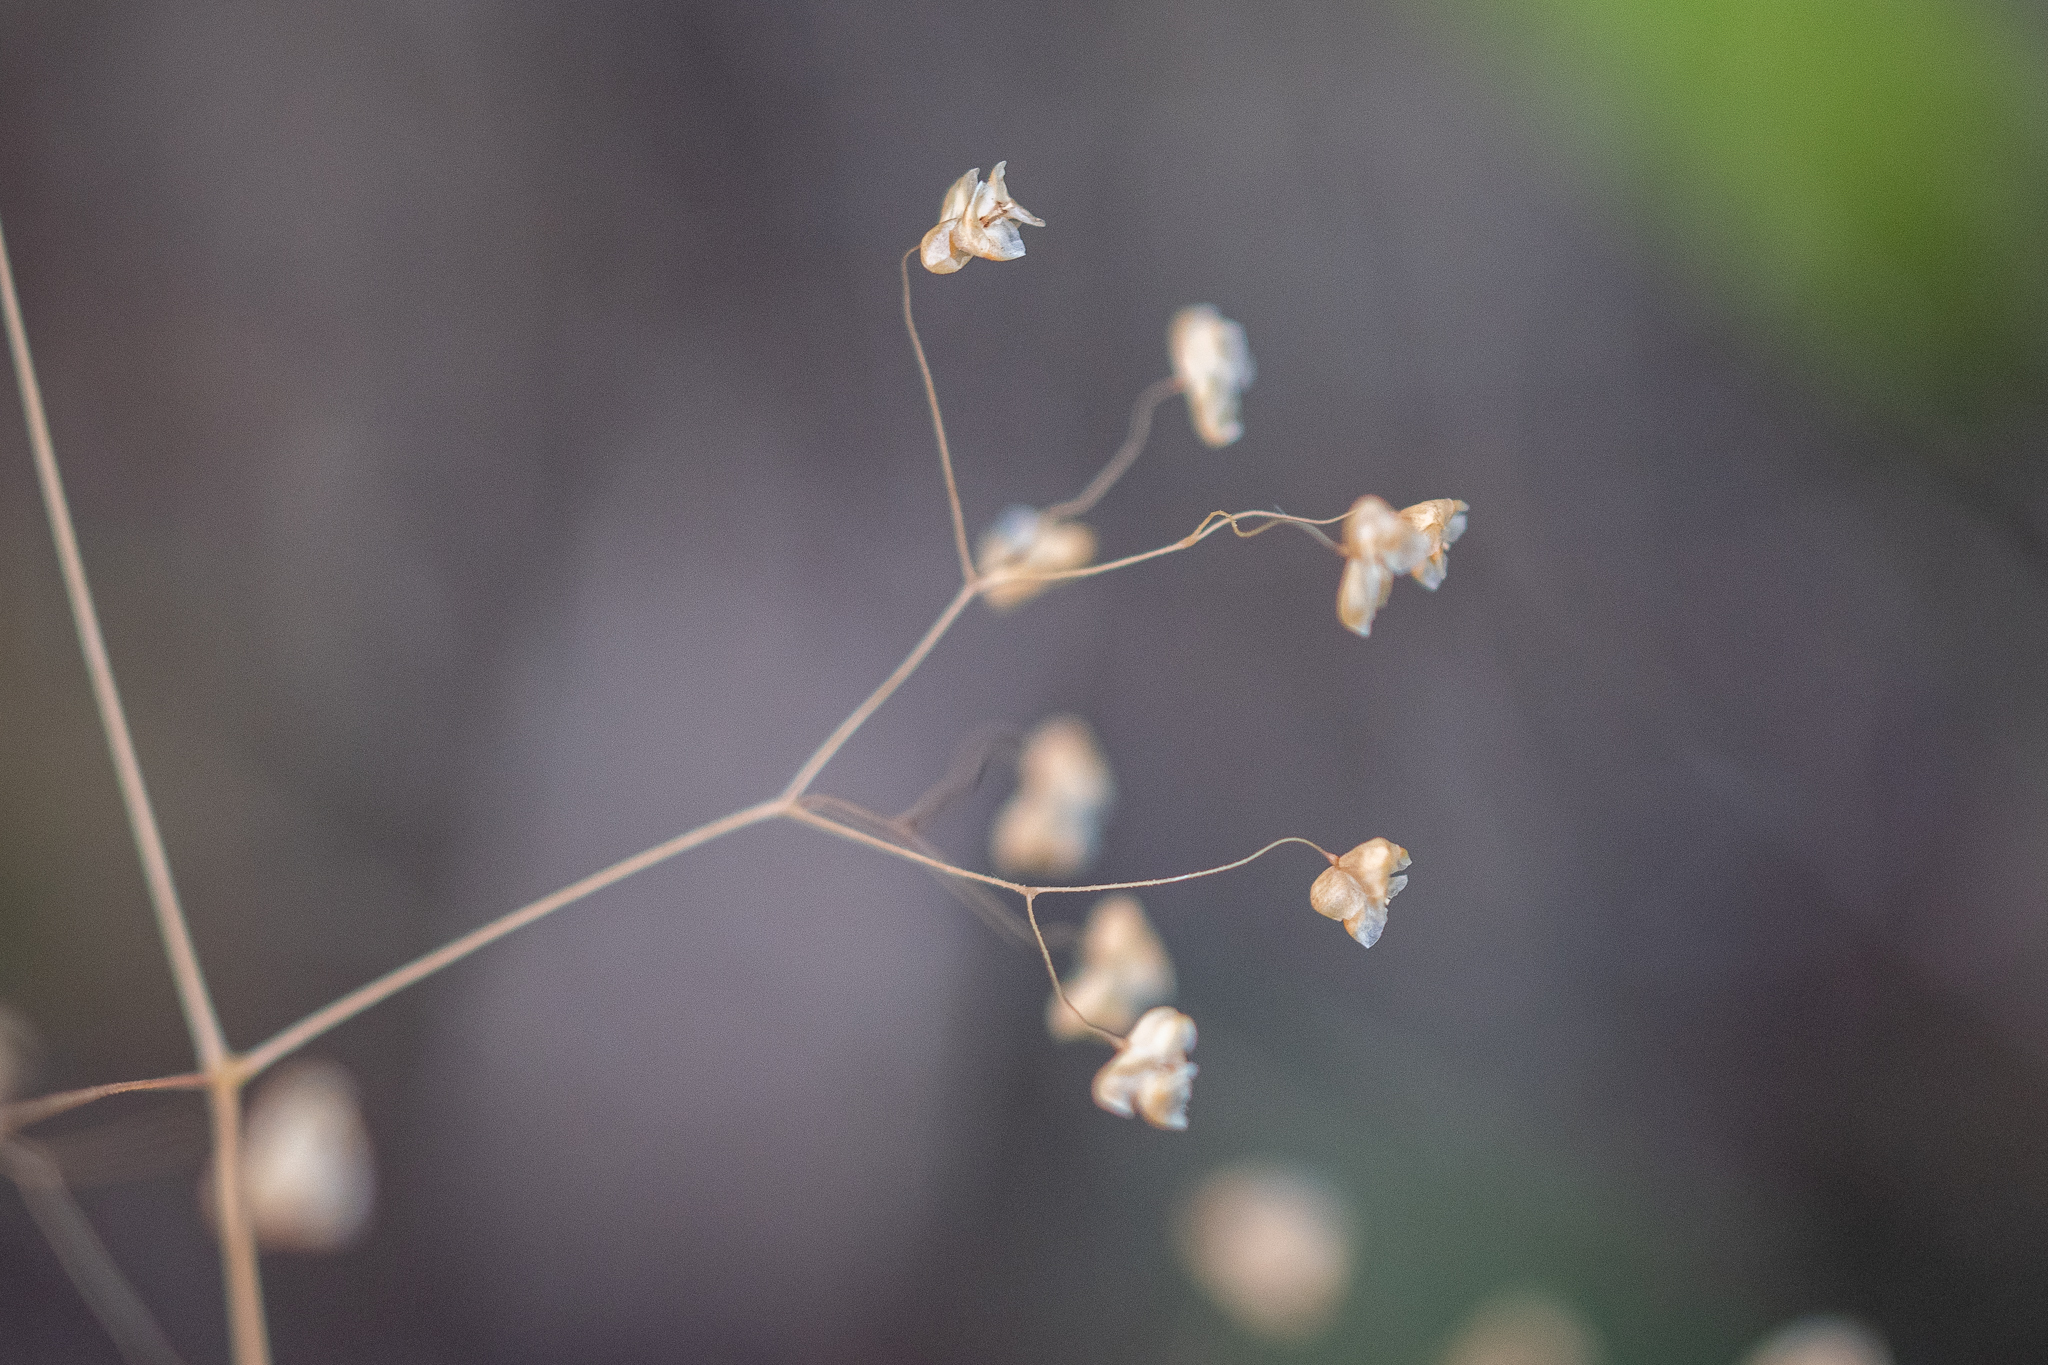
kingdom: Plantae
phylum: Tracheophyta
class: Liliopsida
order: Poales
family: Poaceae
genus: Briza
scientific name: Briza minor
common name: Lesser quaking-grass
